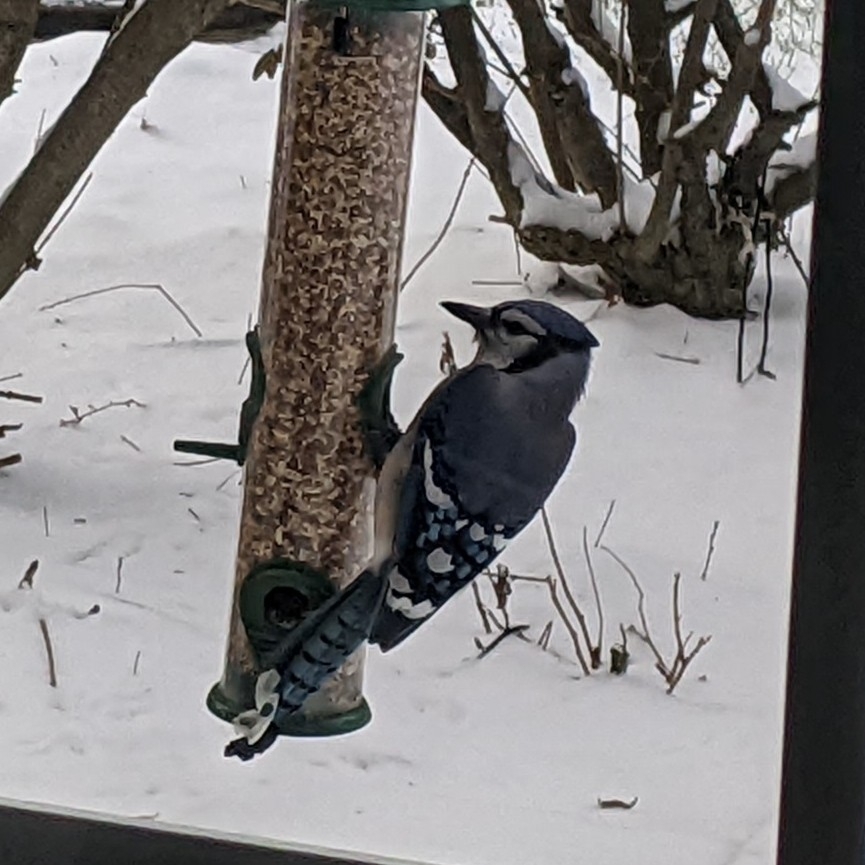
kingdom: Animalia
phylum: Chordata
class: Aves
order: Passeriformes
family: Corvidae
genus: Cyanocitta
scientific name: Cyanocitta cristata
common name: Blue jay
